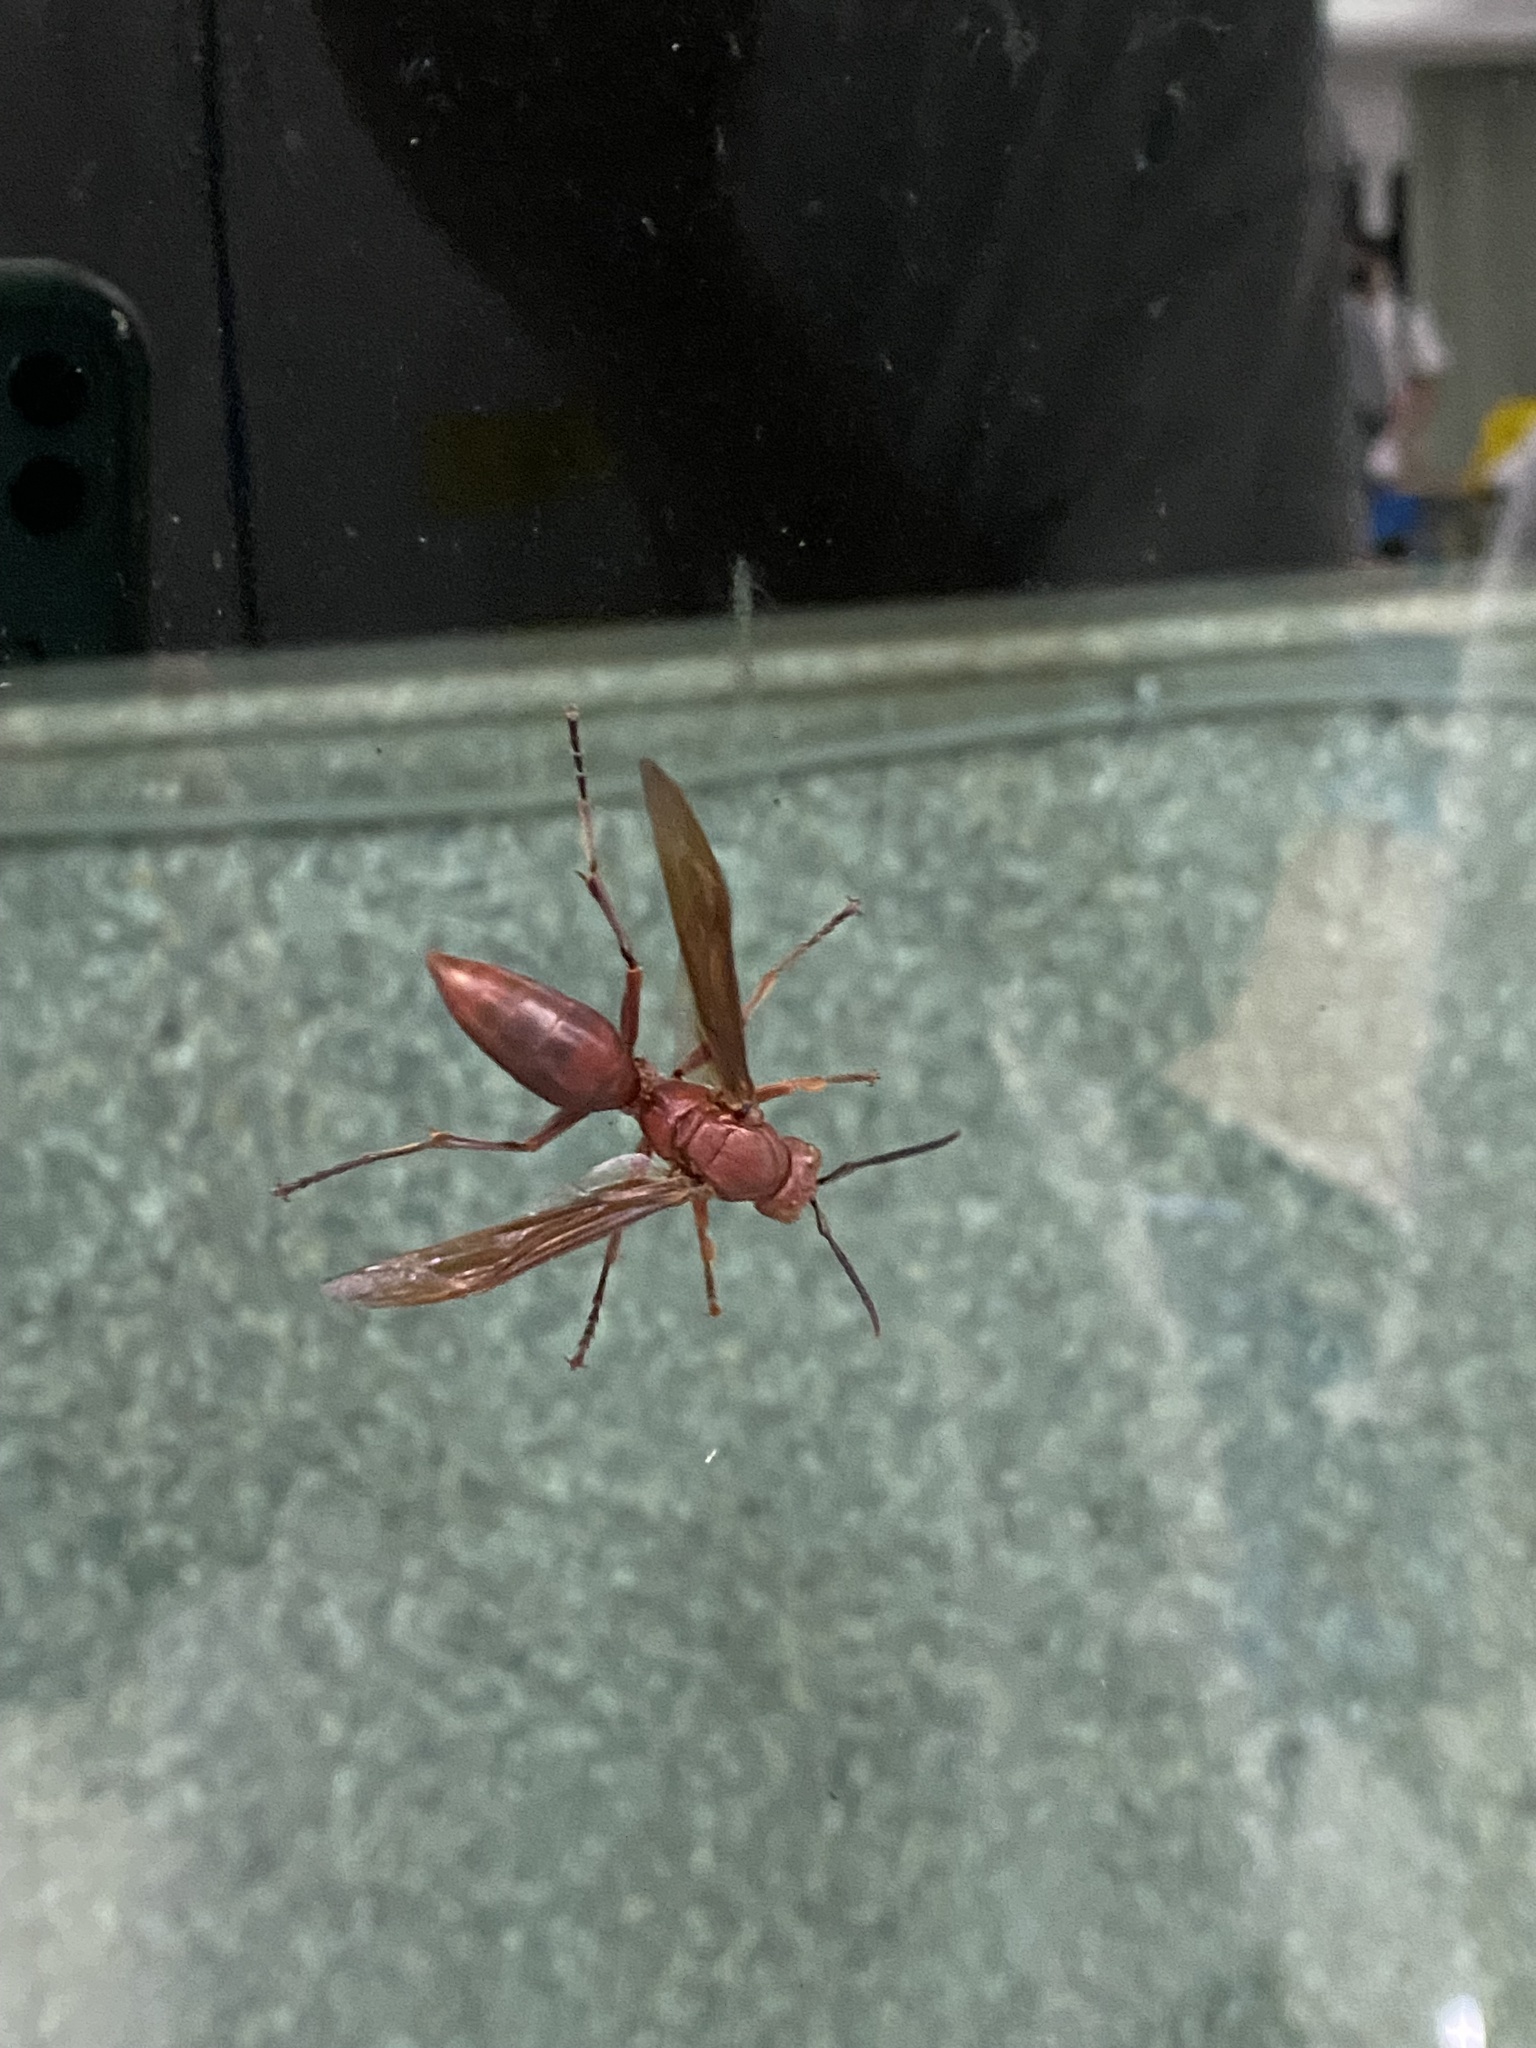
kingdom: Animalia
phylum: Arthropoda
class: Insecta
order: Hymenoptera
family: Eumenidae
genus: Polistes
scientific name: Polistes gigas
